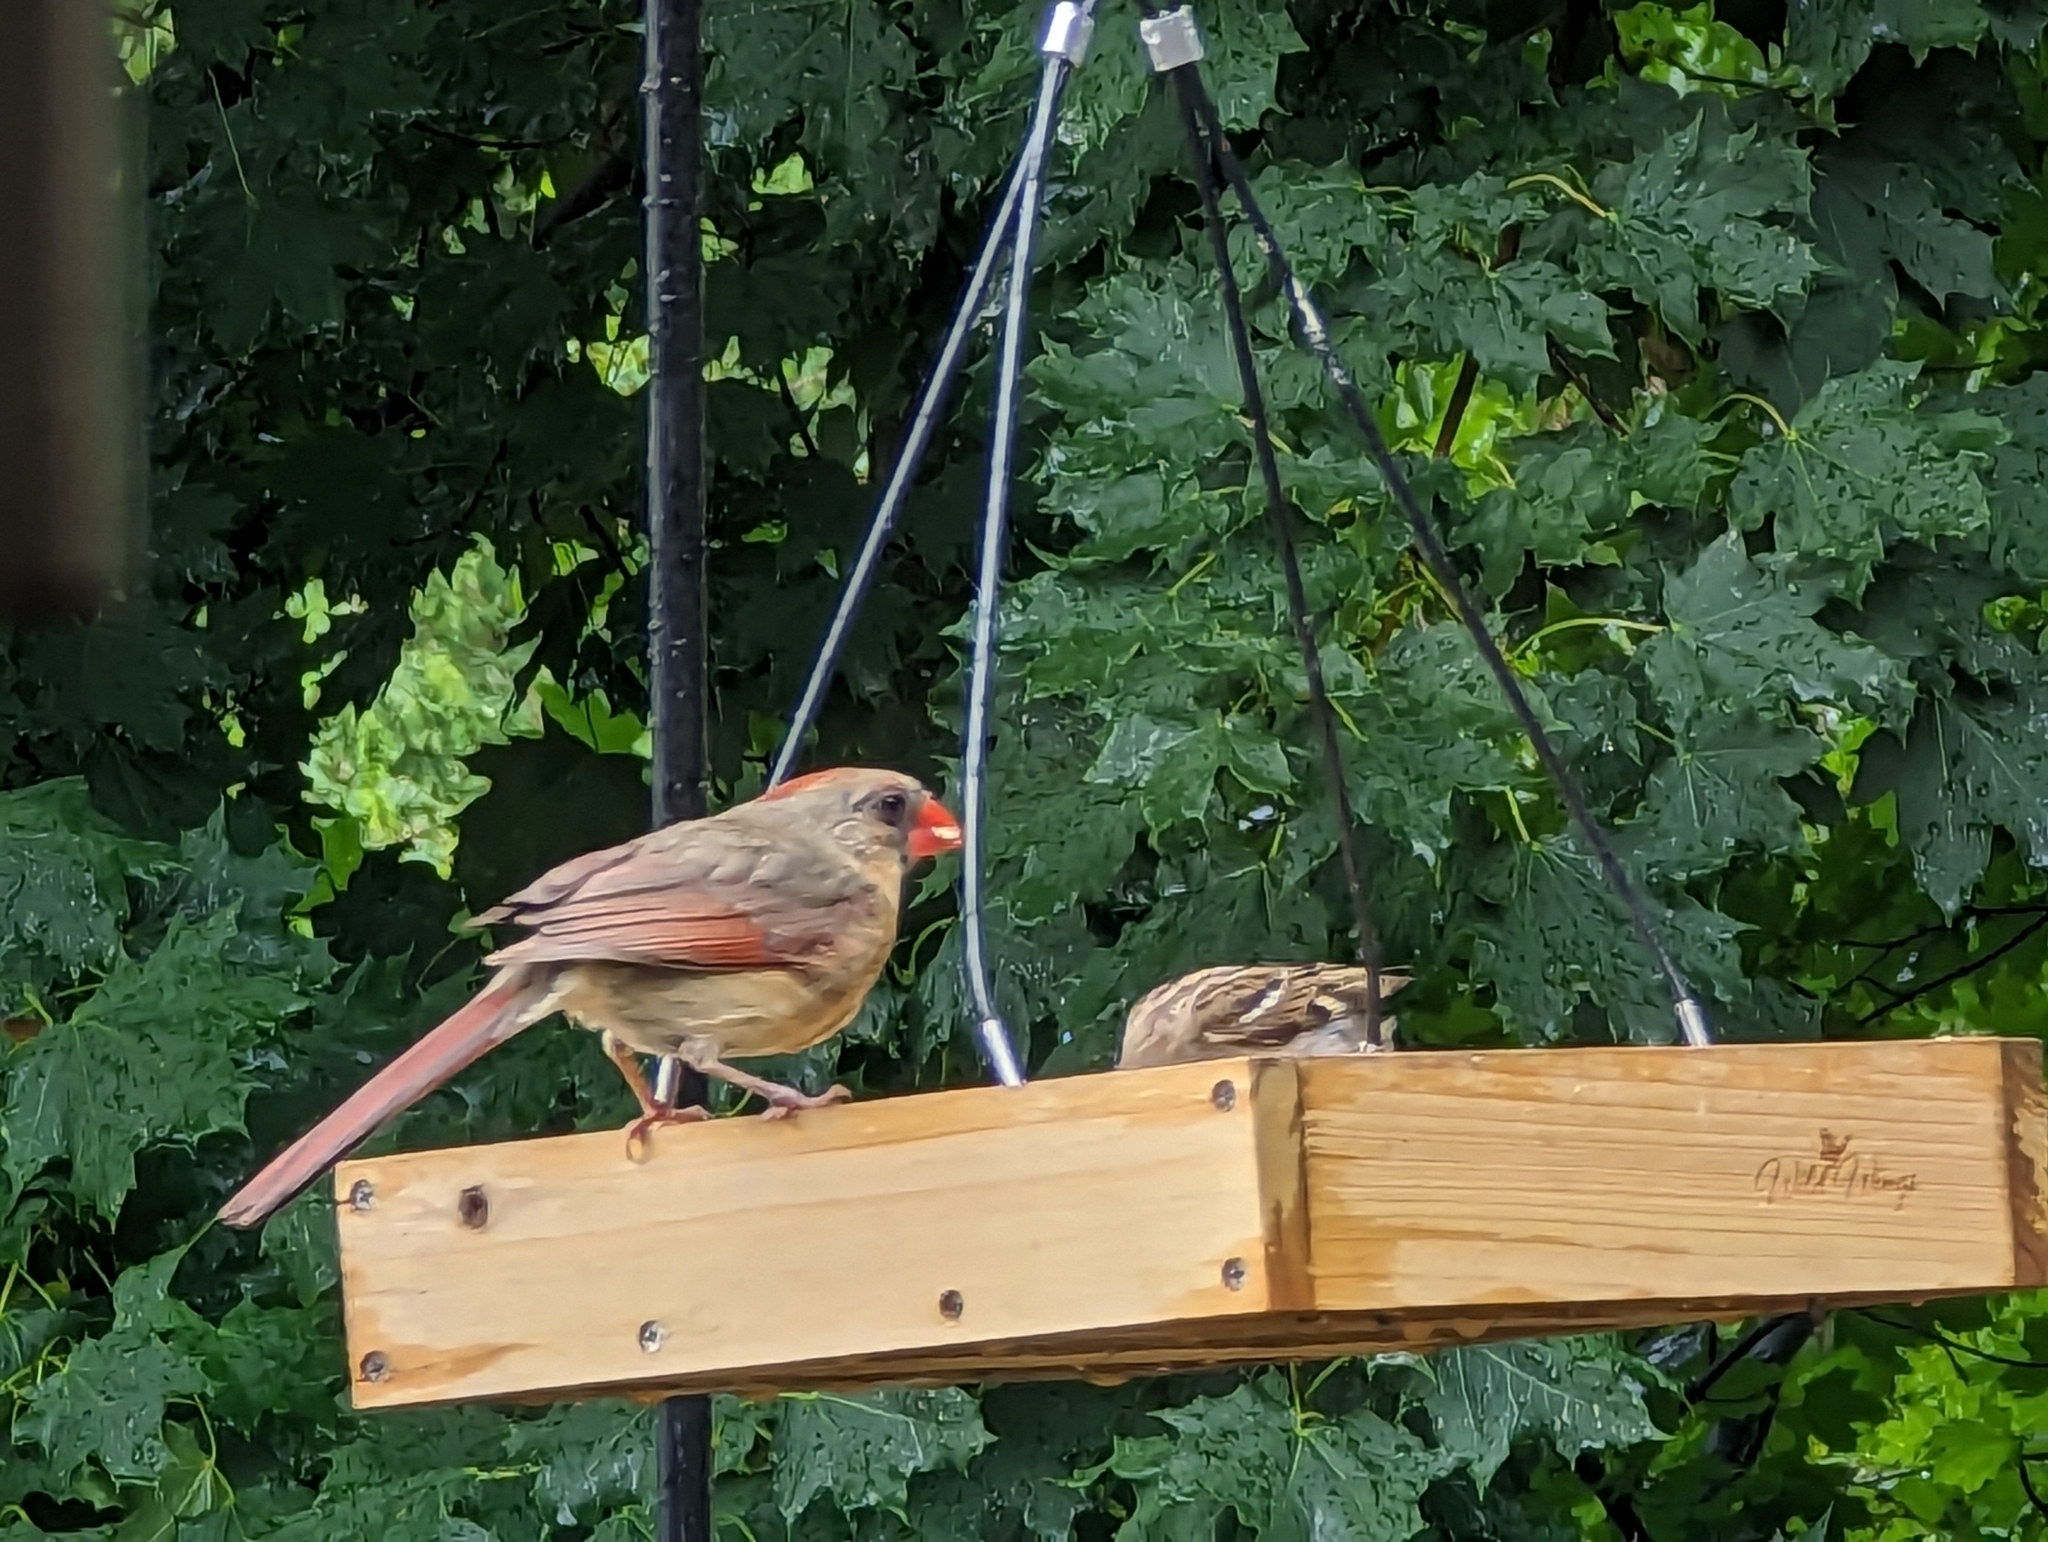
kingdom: Animalia
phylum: Chordata
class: Aves
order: Passeriformes
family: Cardinalidae
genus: Cardinalis
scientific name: Cardinalis cardinalis
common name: Northern cardinal
